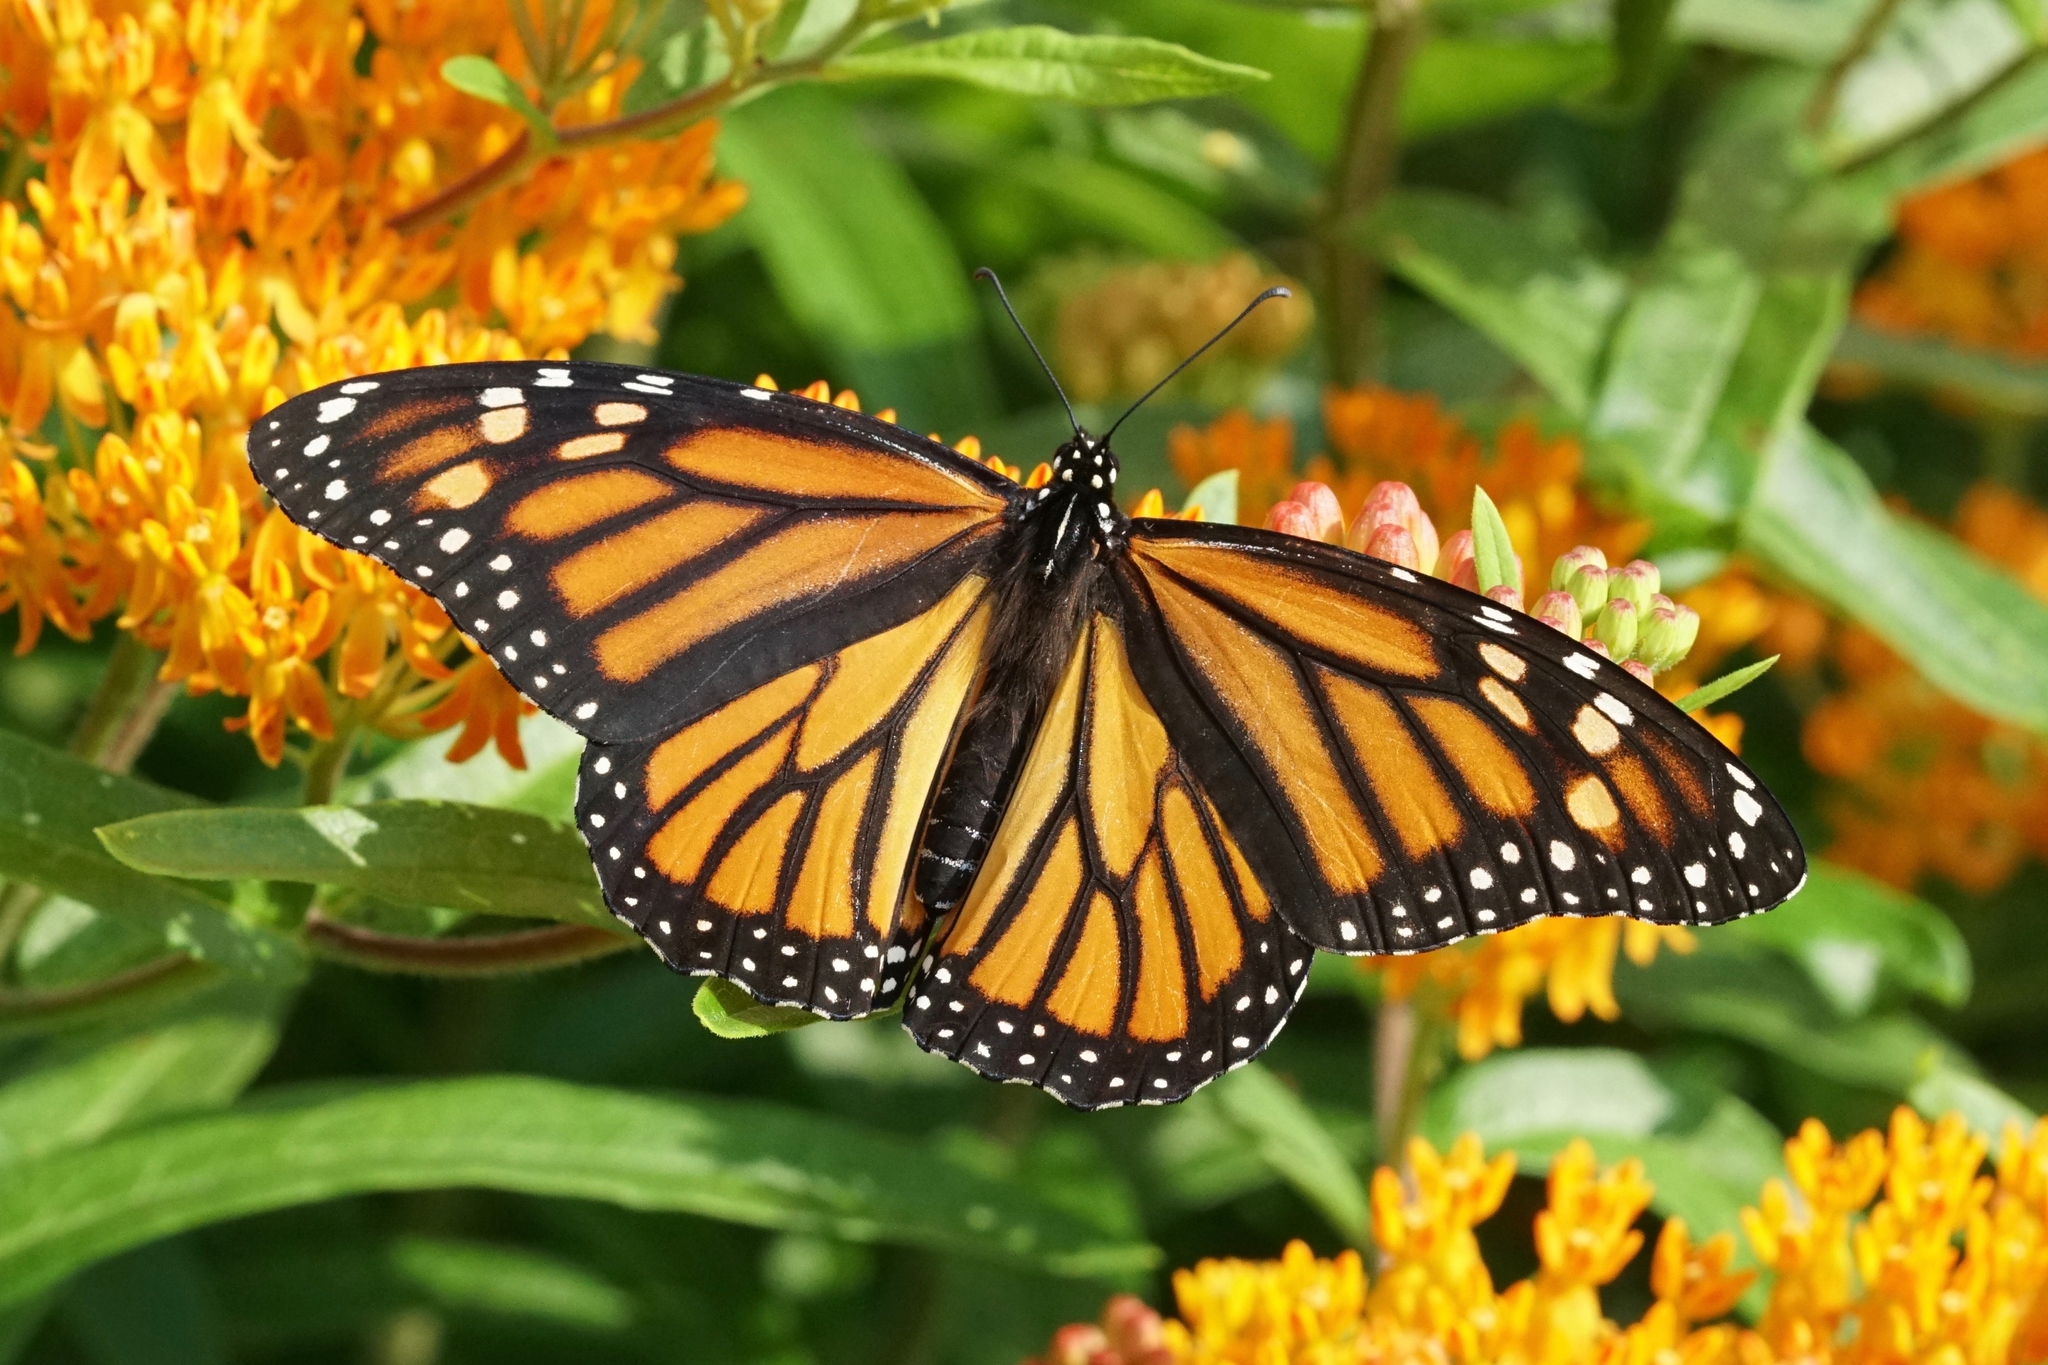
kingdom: Animalia
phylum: Arthropoda
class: Insecta
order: Lepidoptera
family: Nymphalidae
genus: Danaus
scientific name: Danaus plexippus
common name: Monarch
